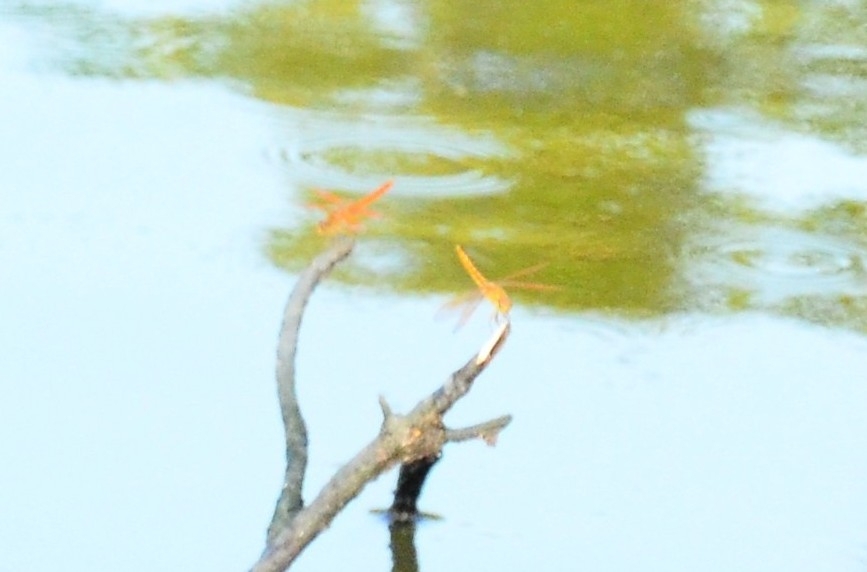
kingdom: Animalia
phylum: Arthropoda
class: Insecta
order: Odonata
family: Libellulidae
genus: Brachythemis
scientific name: Brachythemis contaminata
